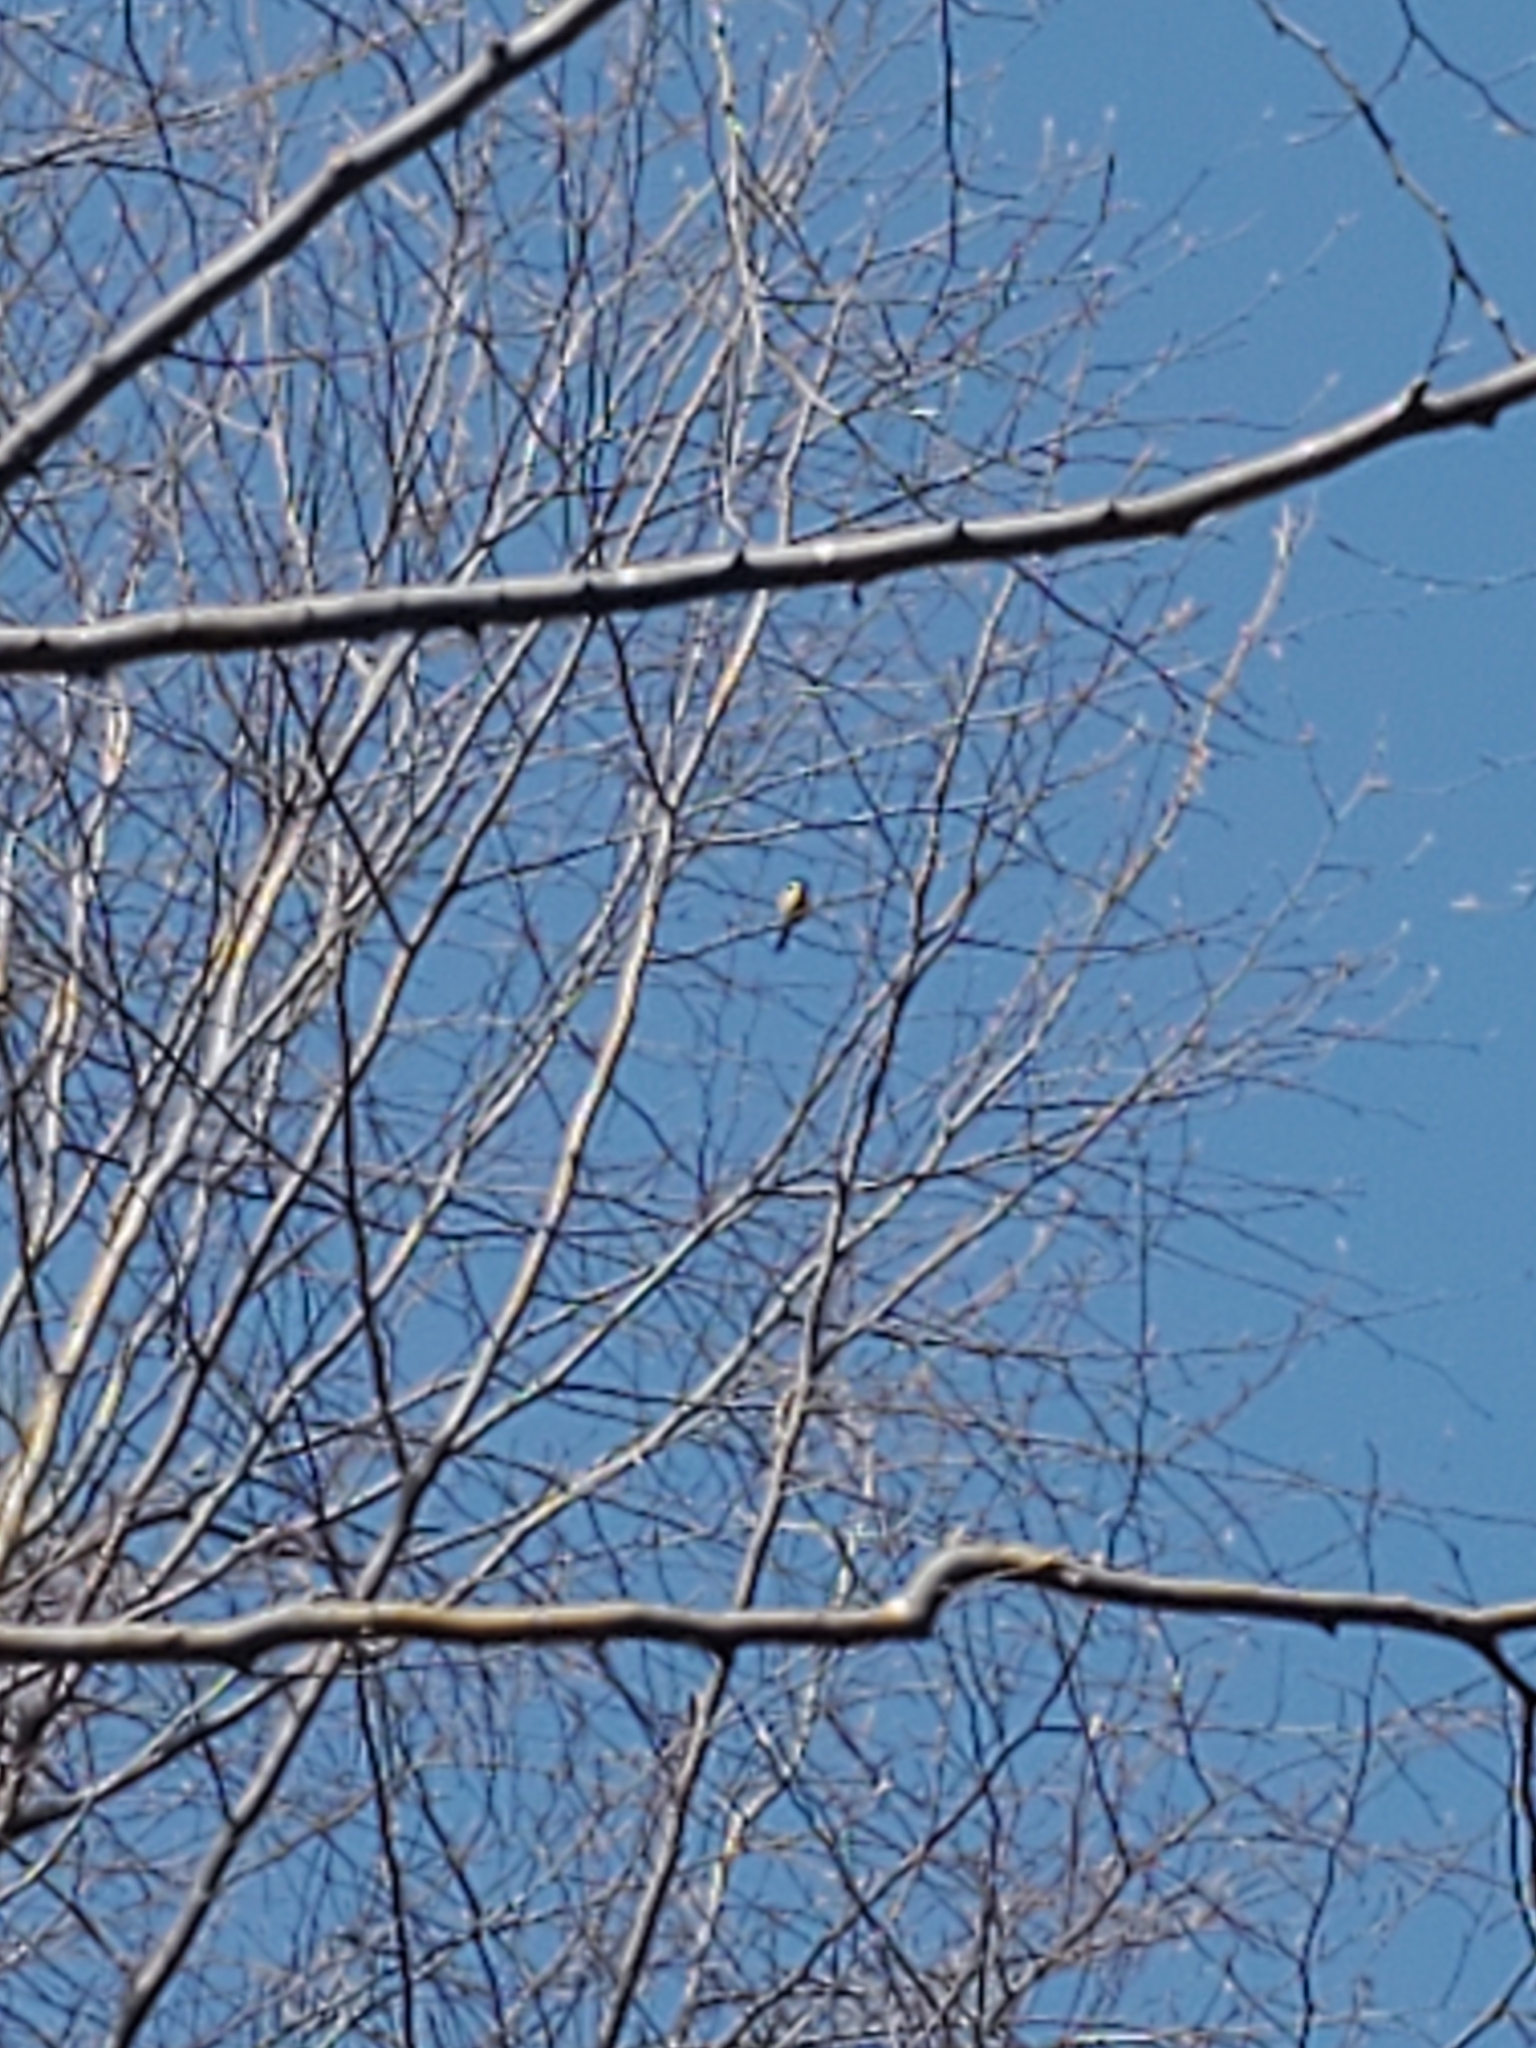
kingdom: Animalia
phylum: Chordata
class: Aves
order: Passeriformes
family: Paridae
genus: Parus
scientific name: Parus major
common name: Great tit
